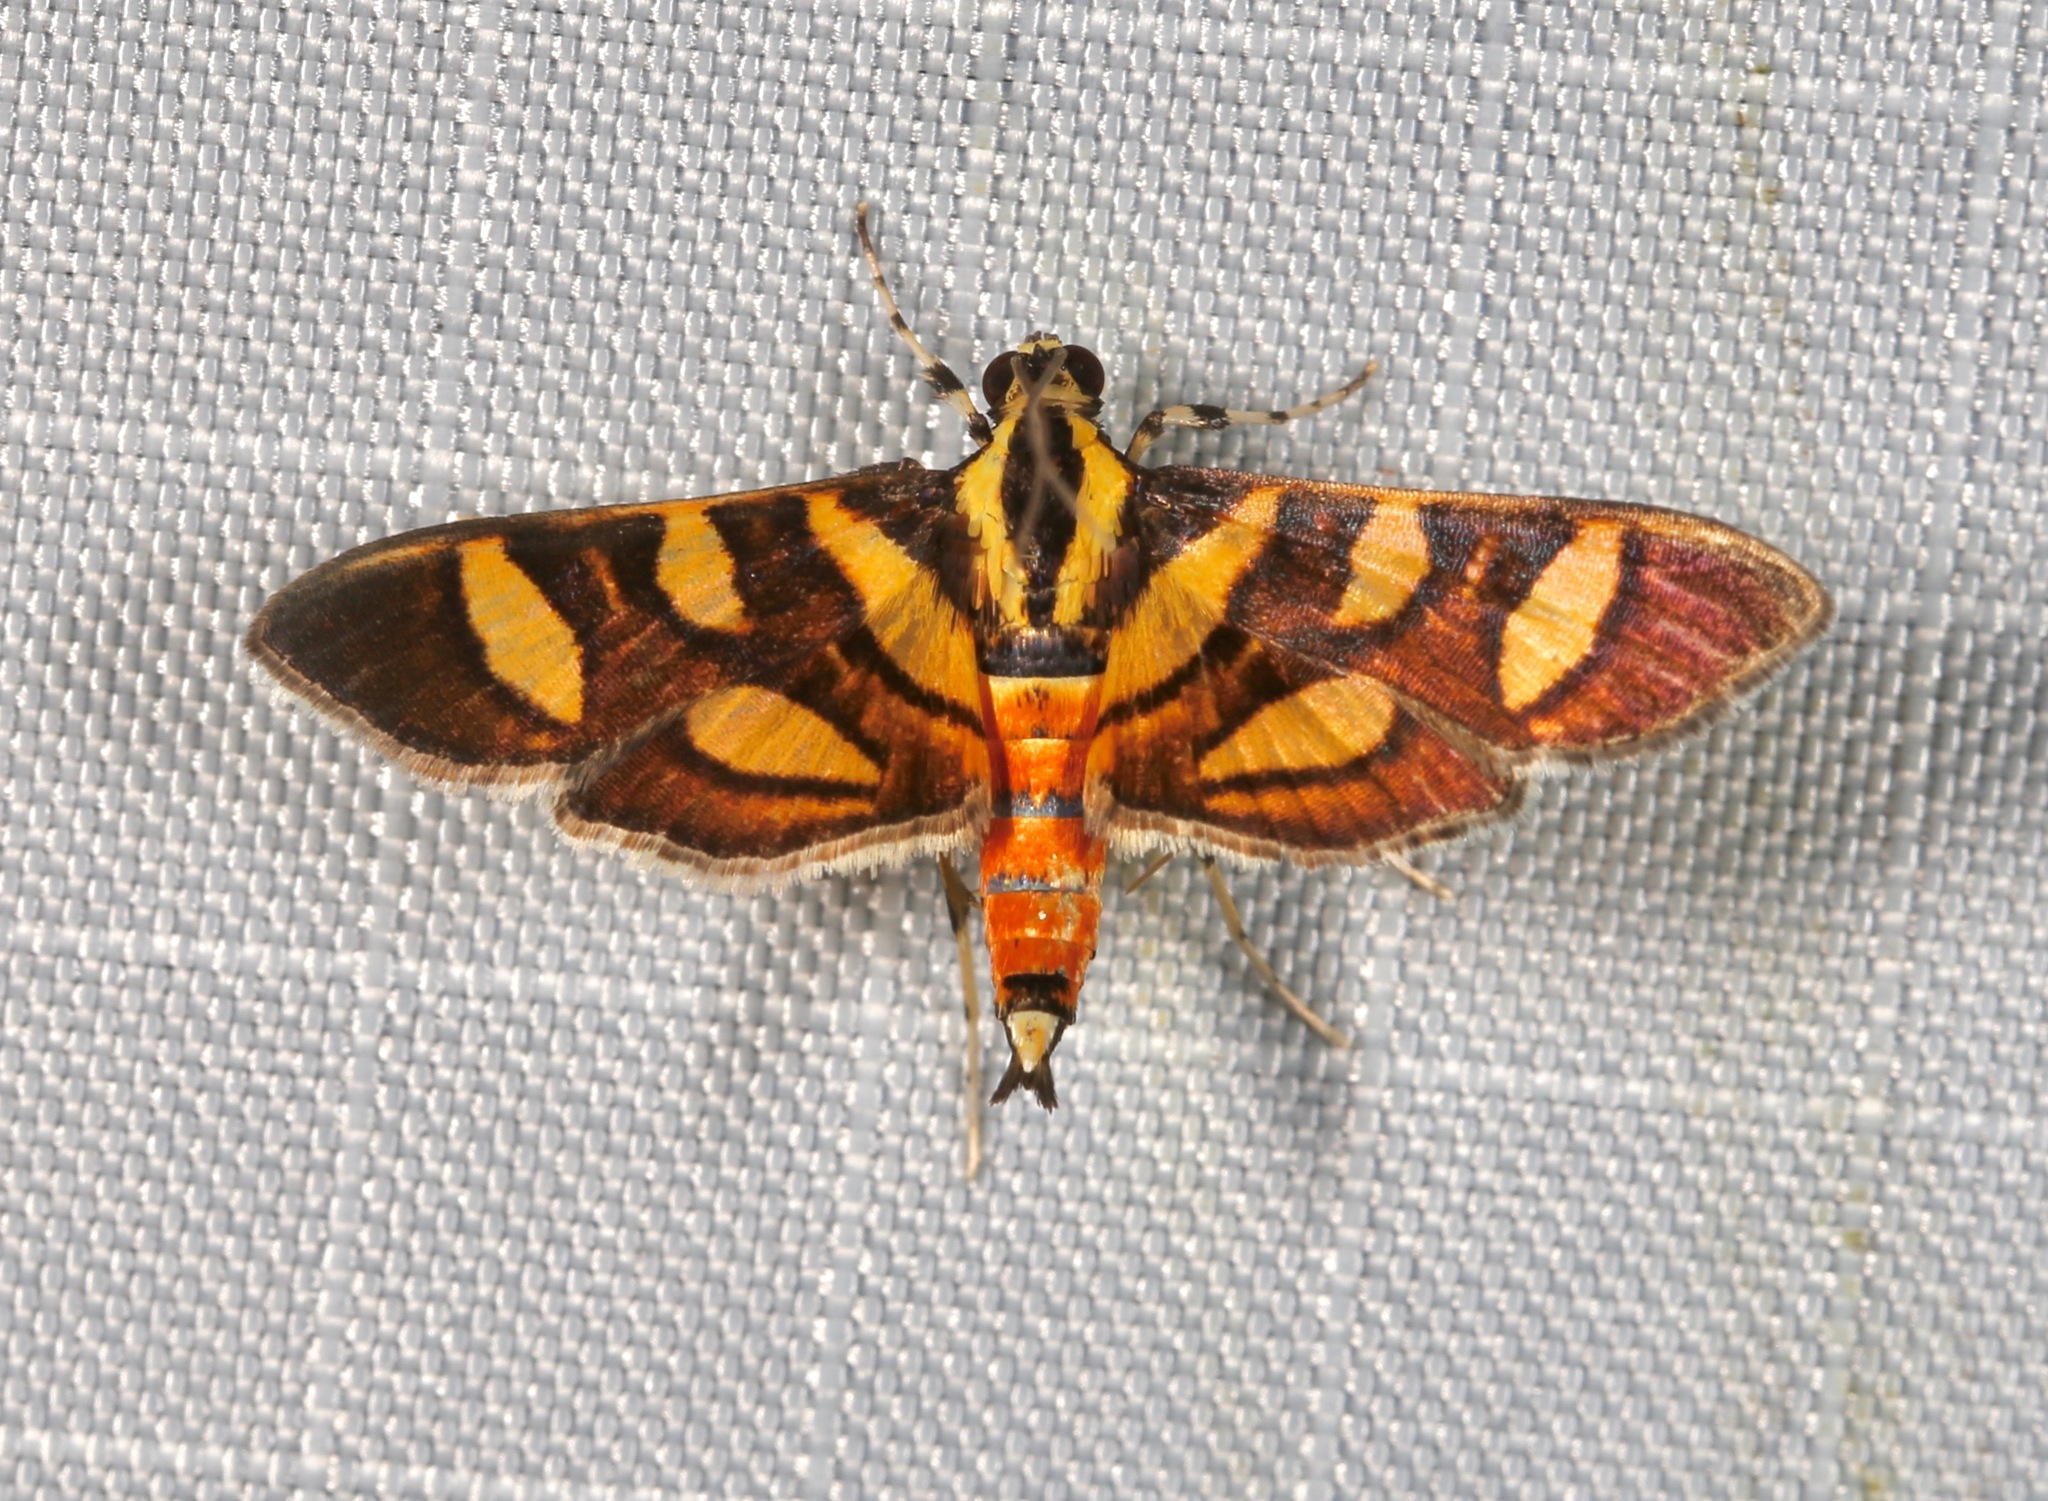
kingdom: Animalia
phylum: Arthropoda
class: Insecta
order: Lepidoptera
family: Crambidae
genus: Syngamia
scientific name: Syngamia florella
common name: Orange-spotted flower moth
